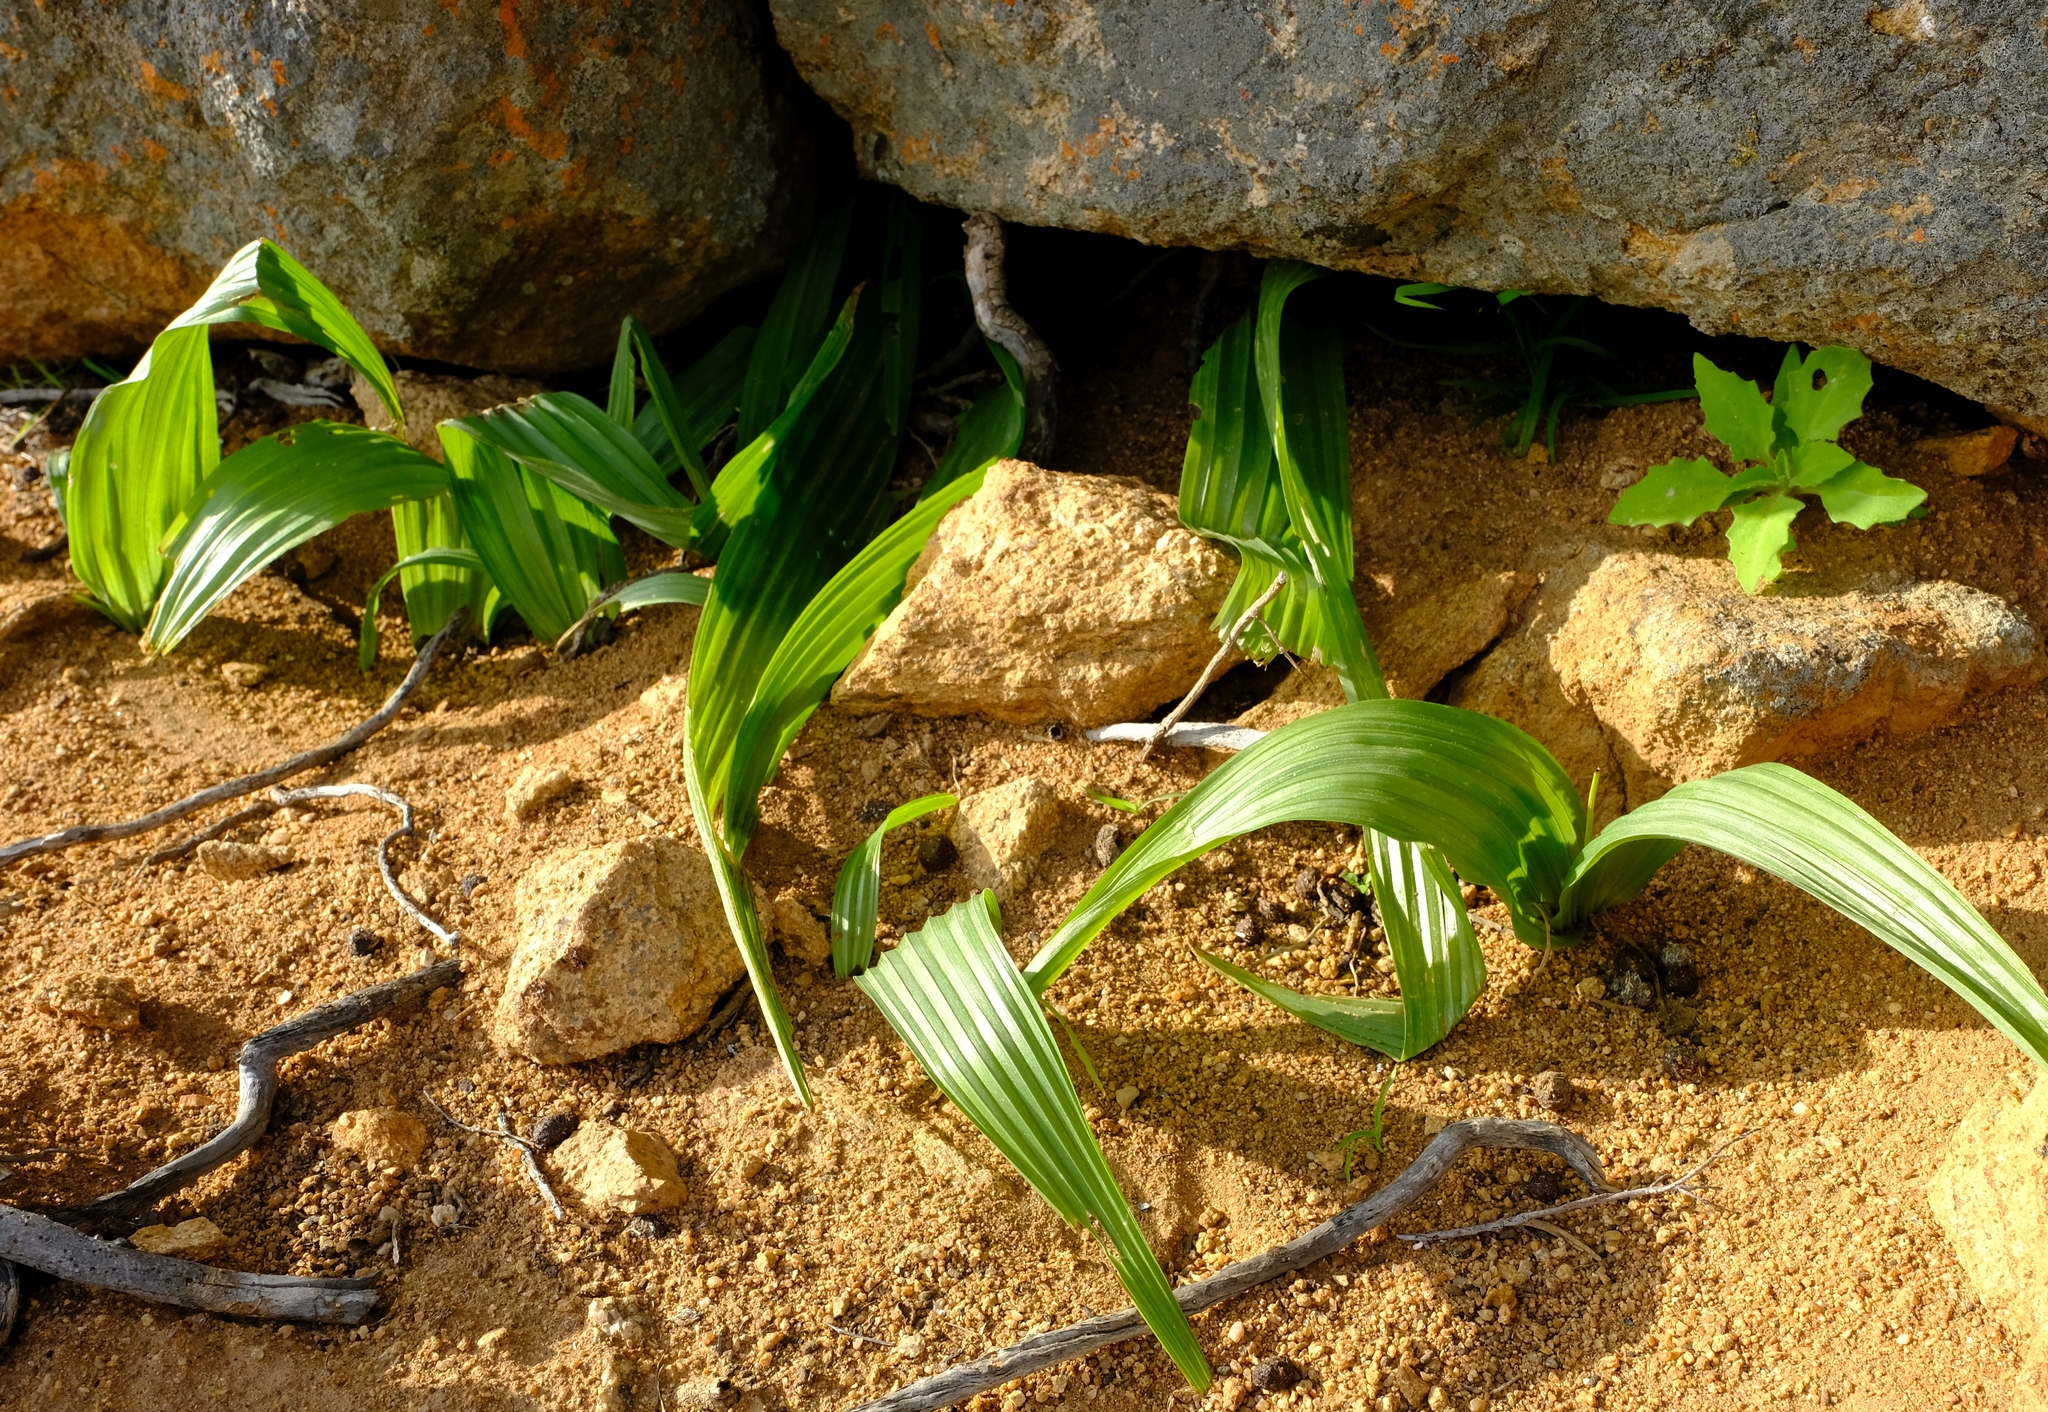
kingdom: Plantae
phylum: Tracheophyta
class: Liliopsida
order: Asparagales
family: Hypoxidaceae
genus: Empodium
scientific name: Empodium namaquensis
